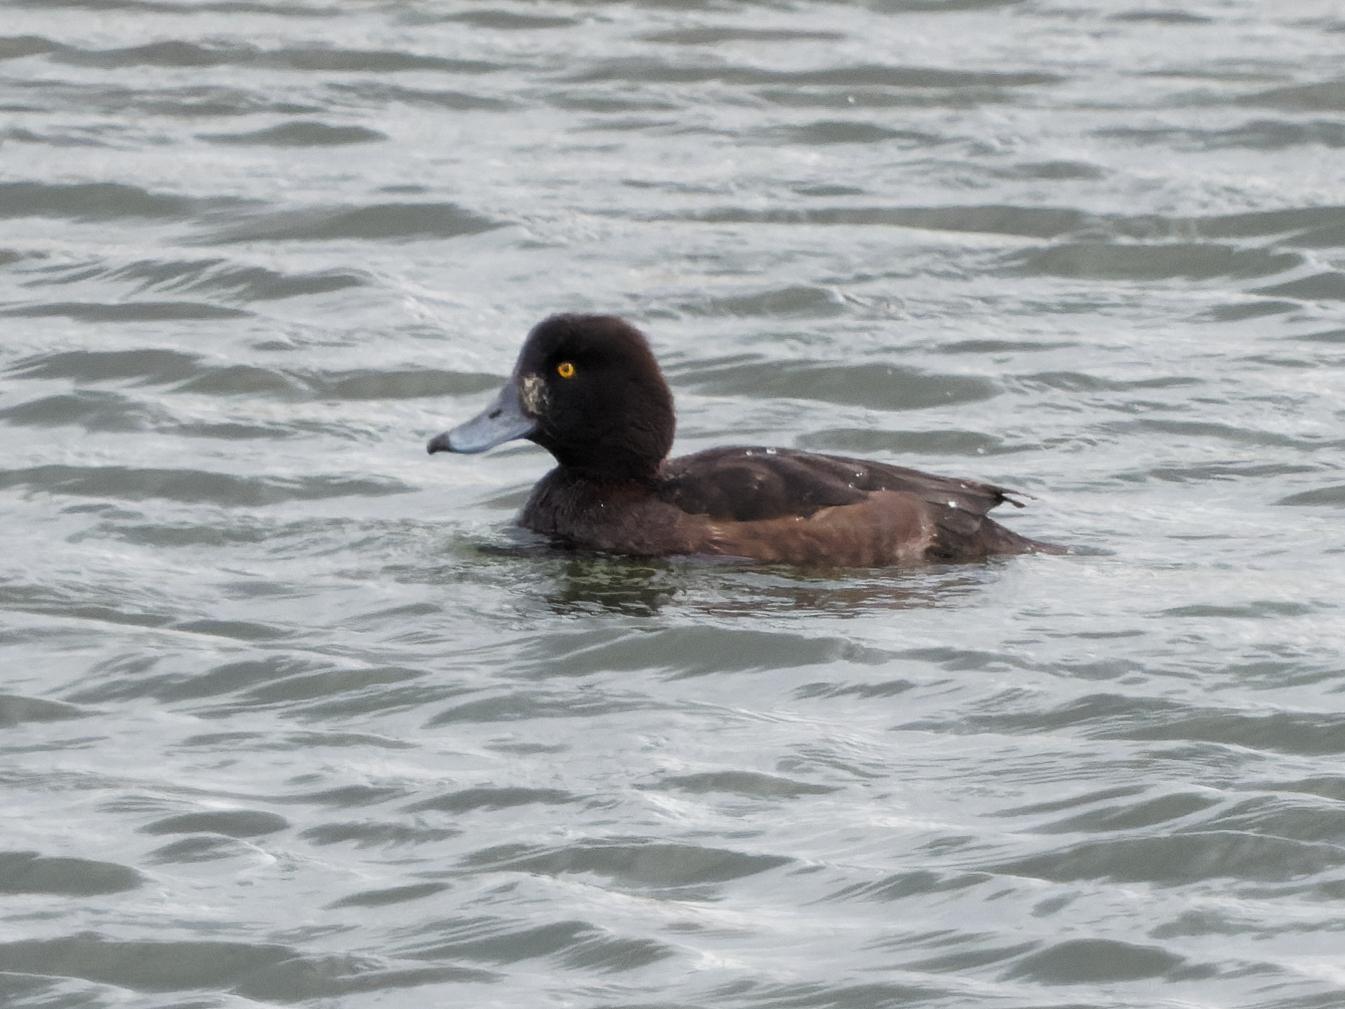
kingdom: Animalia
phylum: Chordata
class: Aves
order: Anseriformes
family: Anatidae
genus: Aythya
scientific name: Aythya fuligula
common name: Tufted duck
